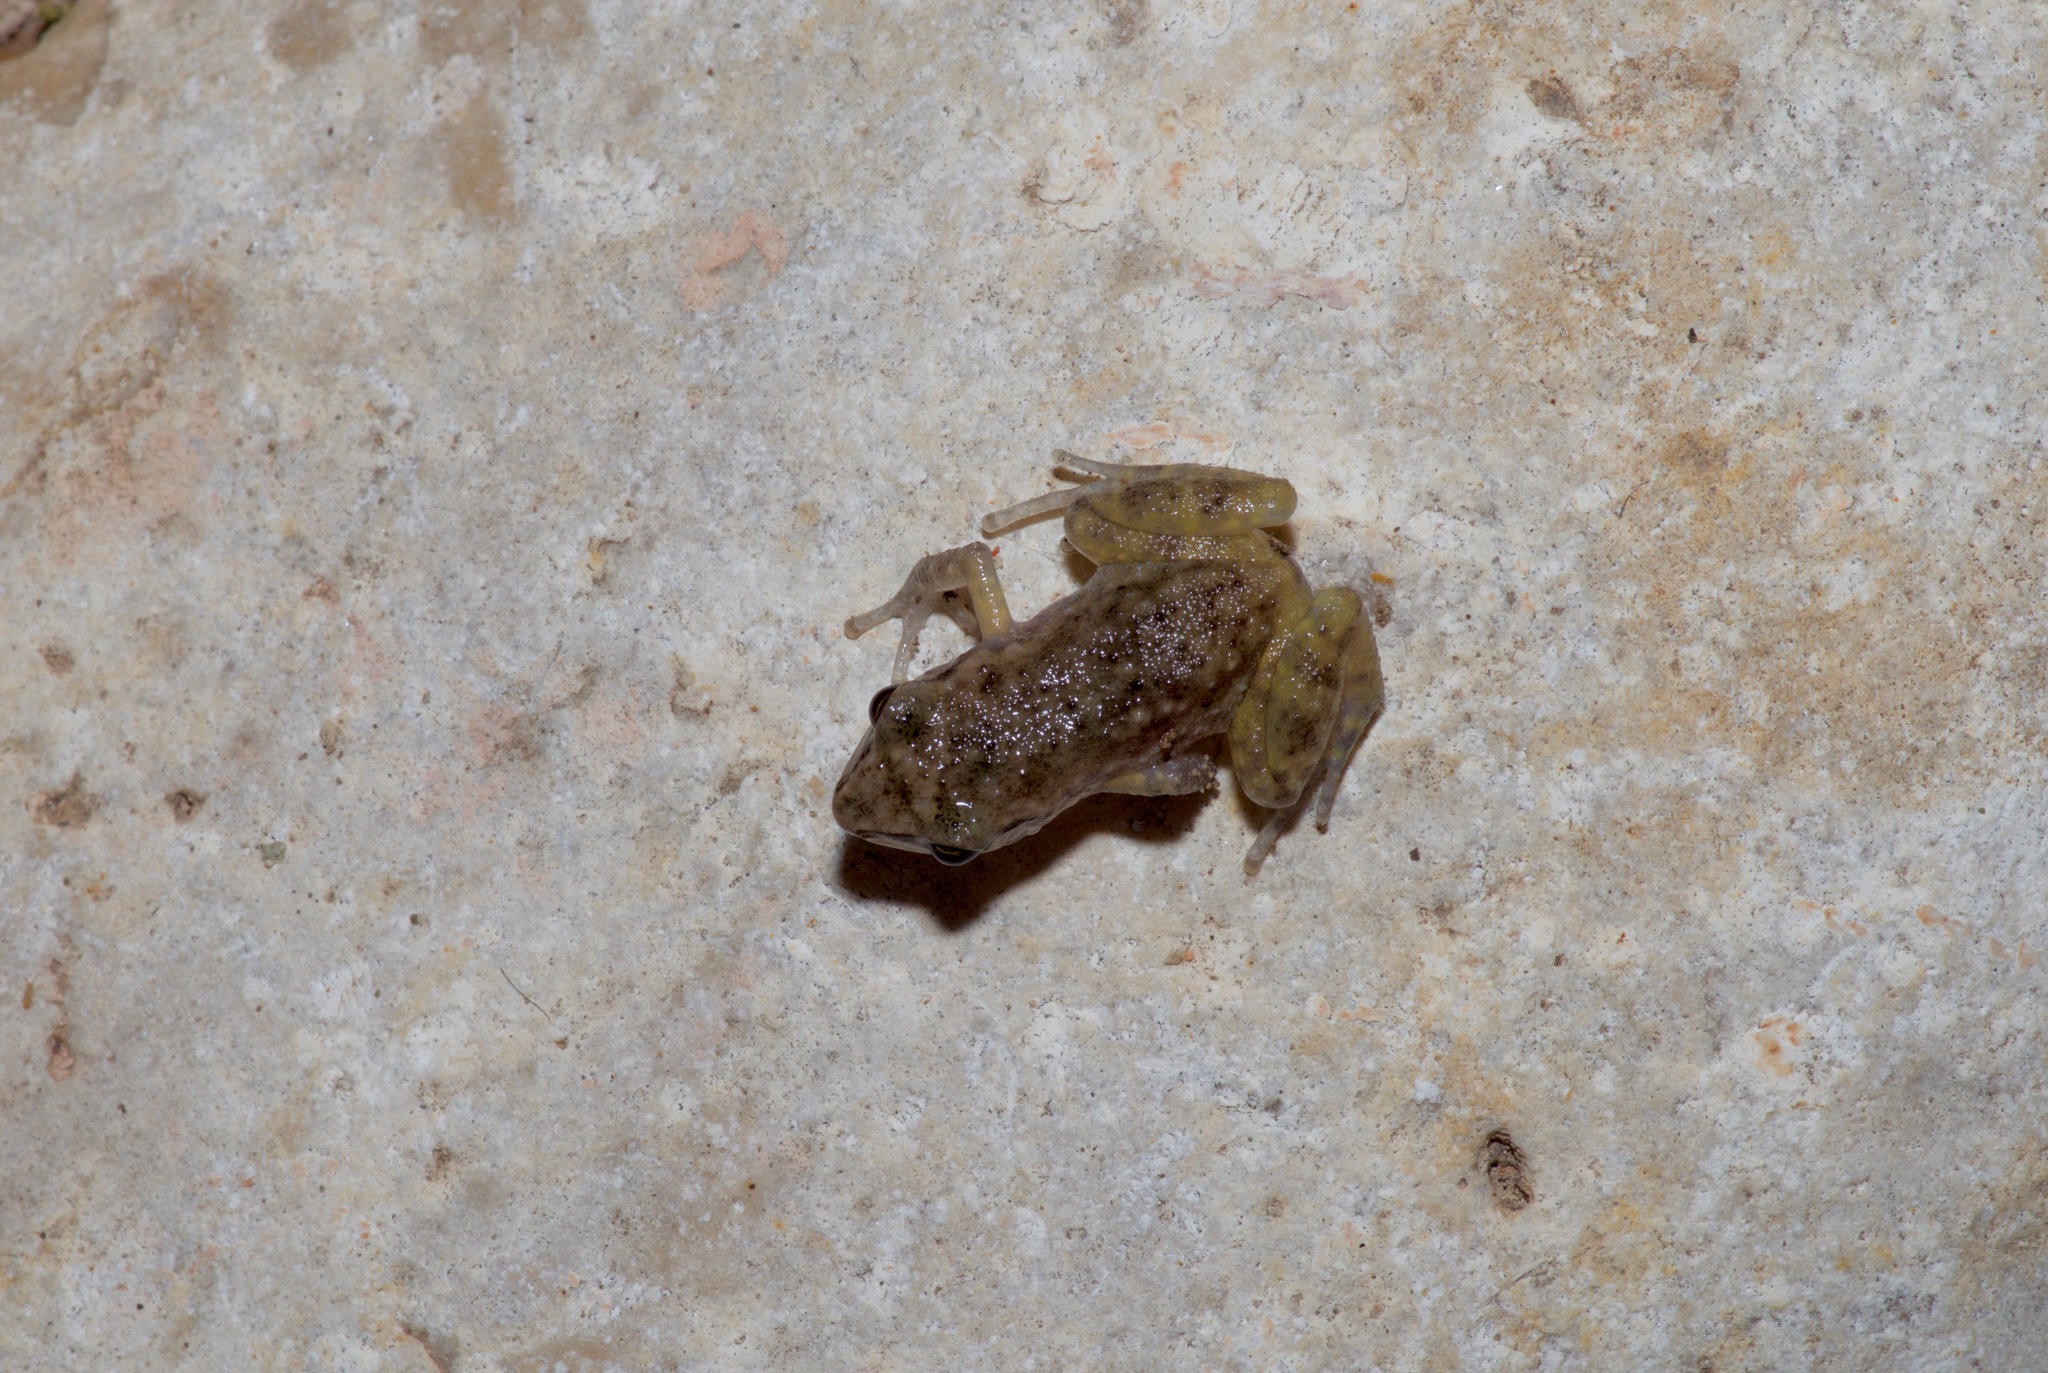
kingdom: Animalia
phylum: Chordata
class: Amphibia
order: Anura
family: Eleutherodactylidae
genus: Eleutherodactylus
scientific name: Eleutherodactylus campi
